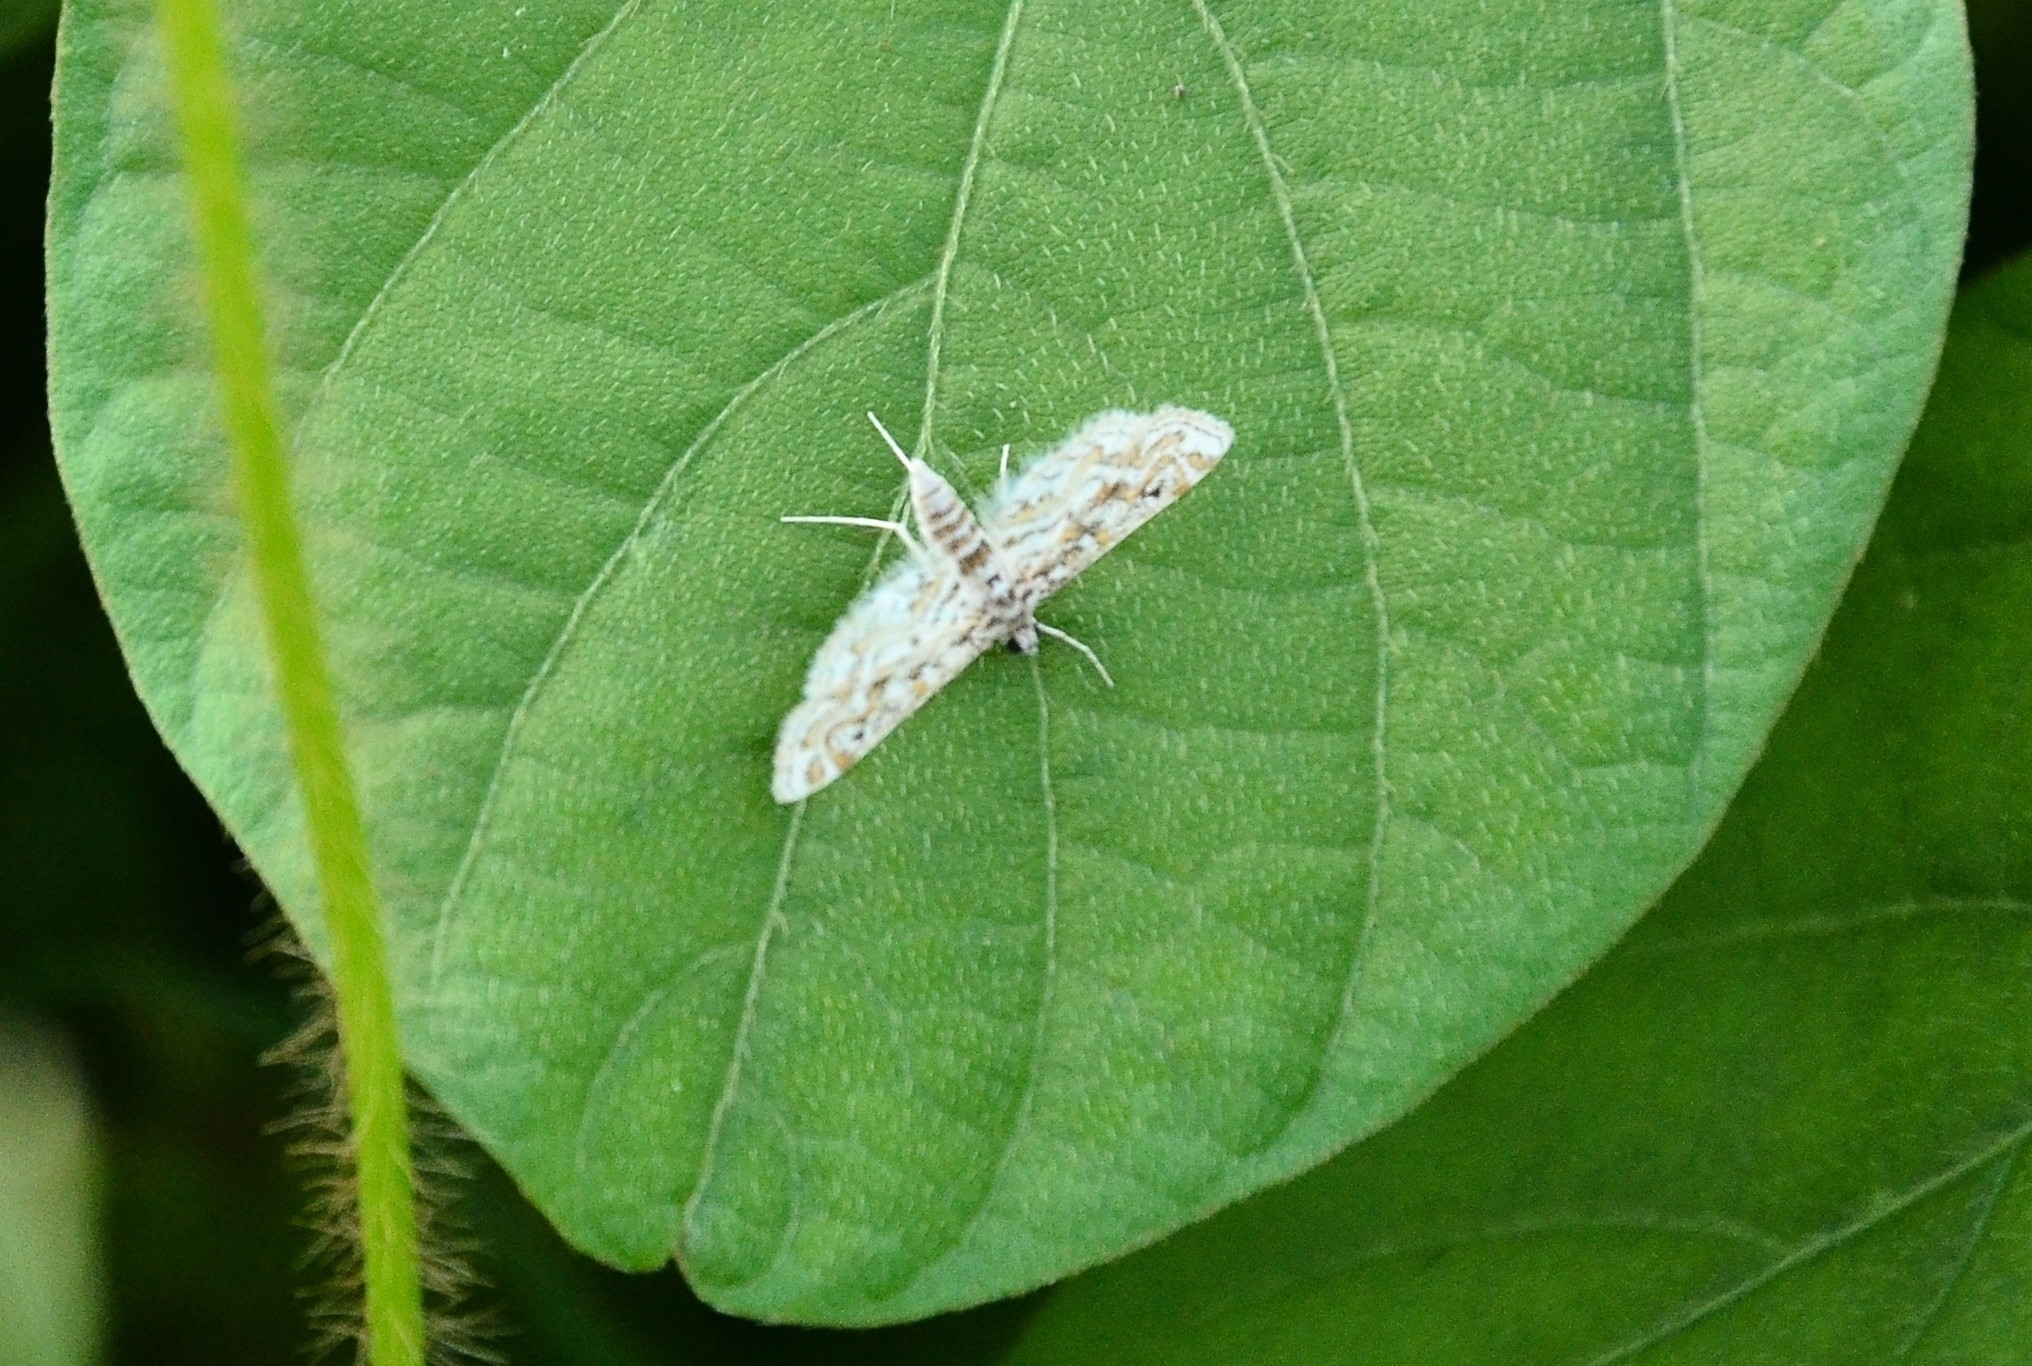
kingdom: Animalia
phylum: Arthropoda
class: Insecta
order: Lepidoptera
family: Crambidae
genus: Parapoynx
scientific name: Parapoynx diminutalis
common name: Hydrilla leafcutter
